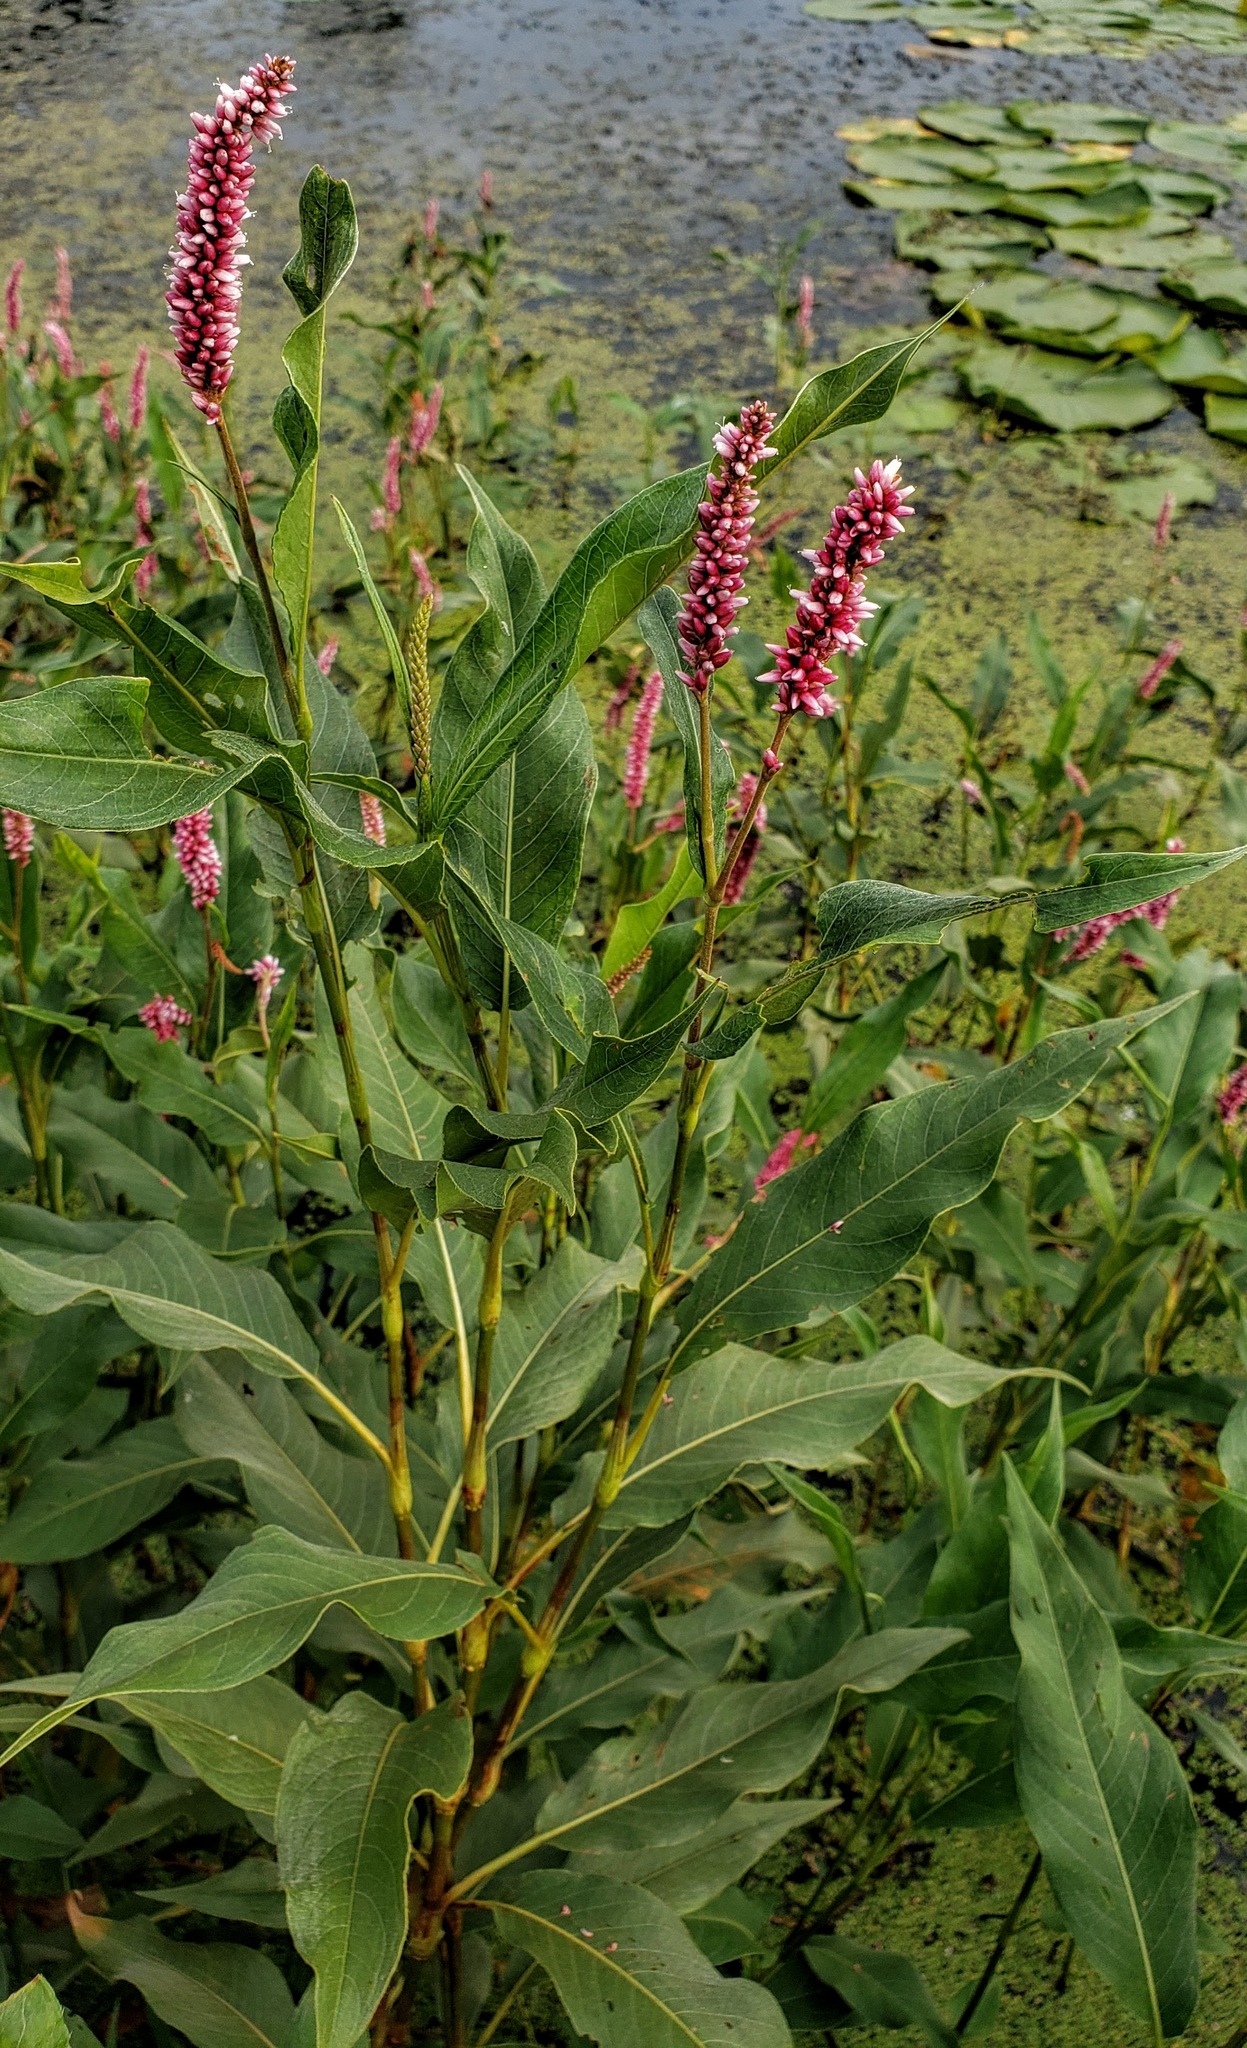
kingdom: Plantae
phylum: Tracheophyta
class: Magnoliopsida
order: Caryophyllales
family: Polygonaceae
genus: Persicaria
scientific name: Persicaria amphibia
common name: Amphibious bistort
